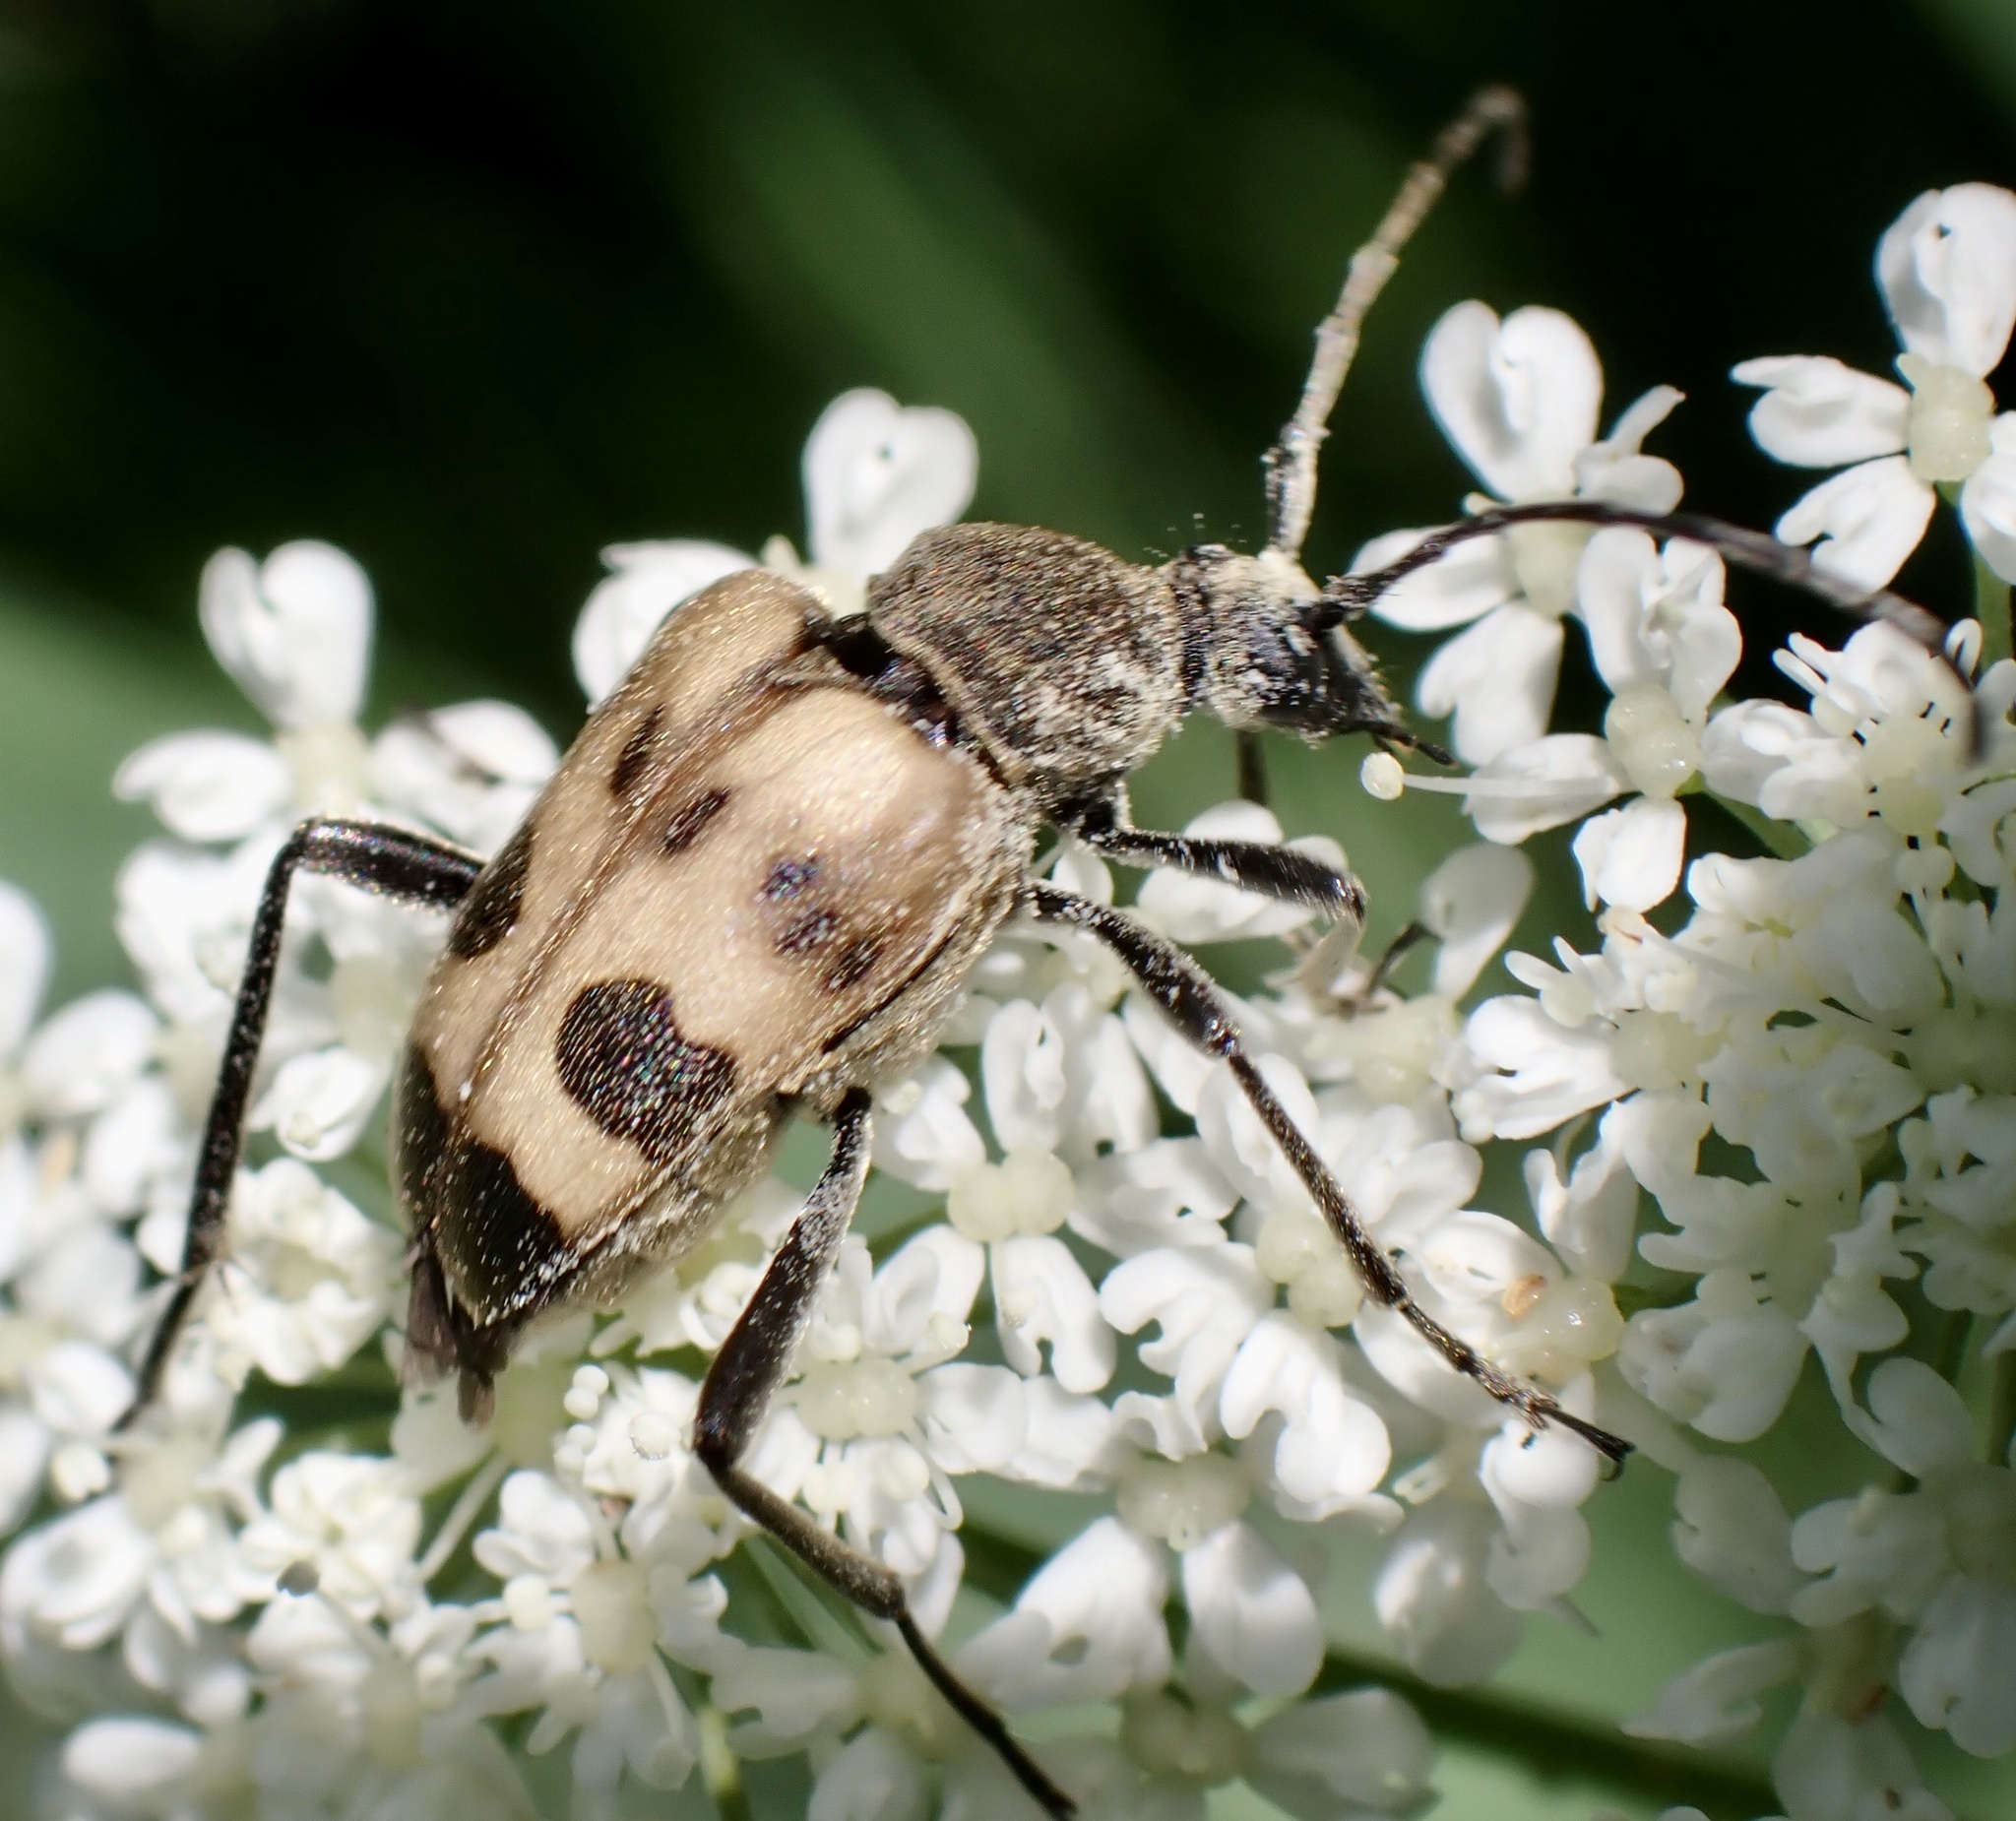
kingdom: Animalia
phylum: Arthropoda
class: Insecta
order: Coleoptera
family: Cerambycidae
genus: Pachytodes
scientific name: Pachytodes cerambyciformis
